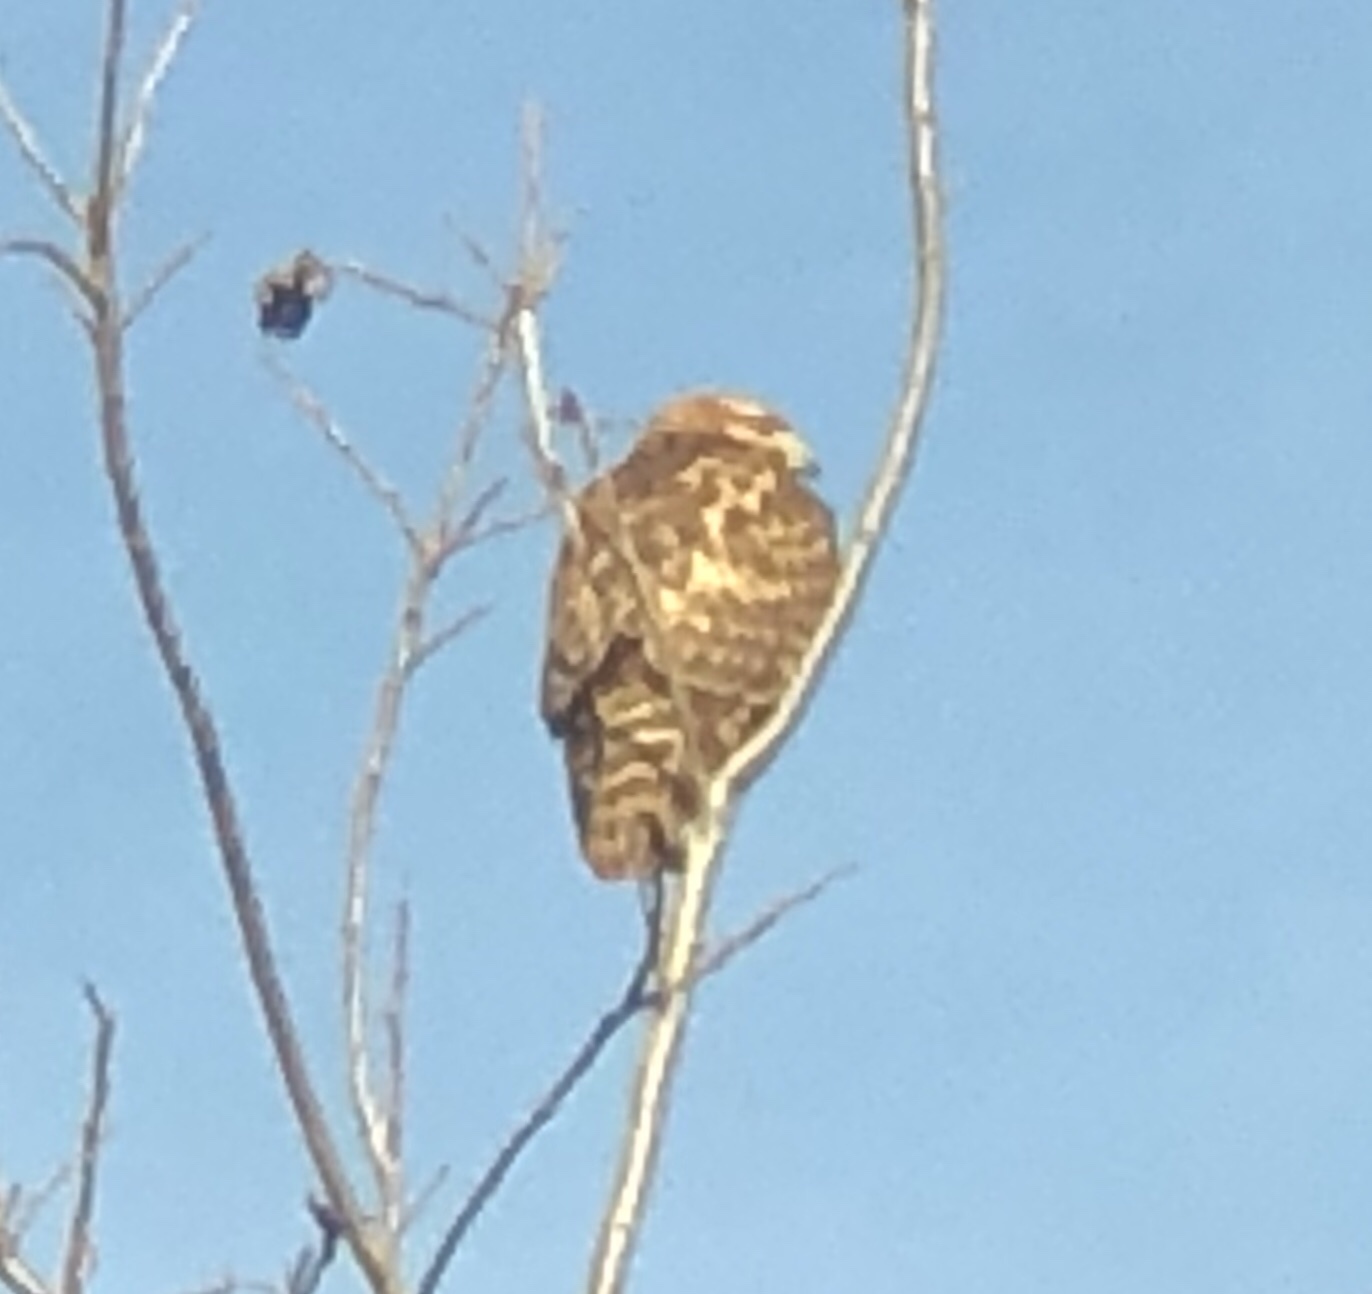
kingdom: Animalia
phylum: Chordata
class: Aves
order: Accipitriformes
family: Accipitridae
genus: Buteo
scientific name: Buteo lineatus
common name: Red-shouldered hawk
